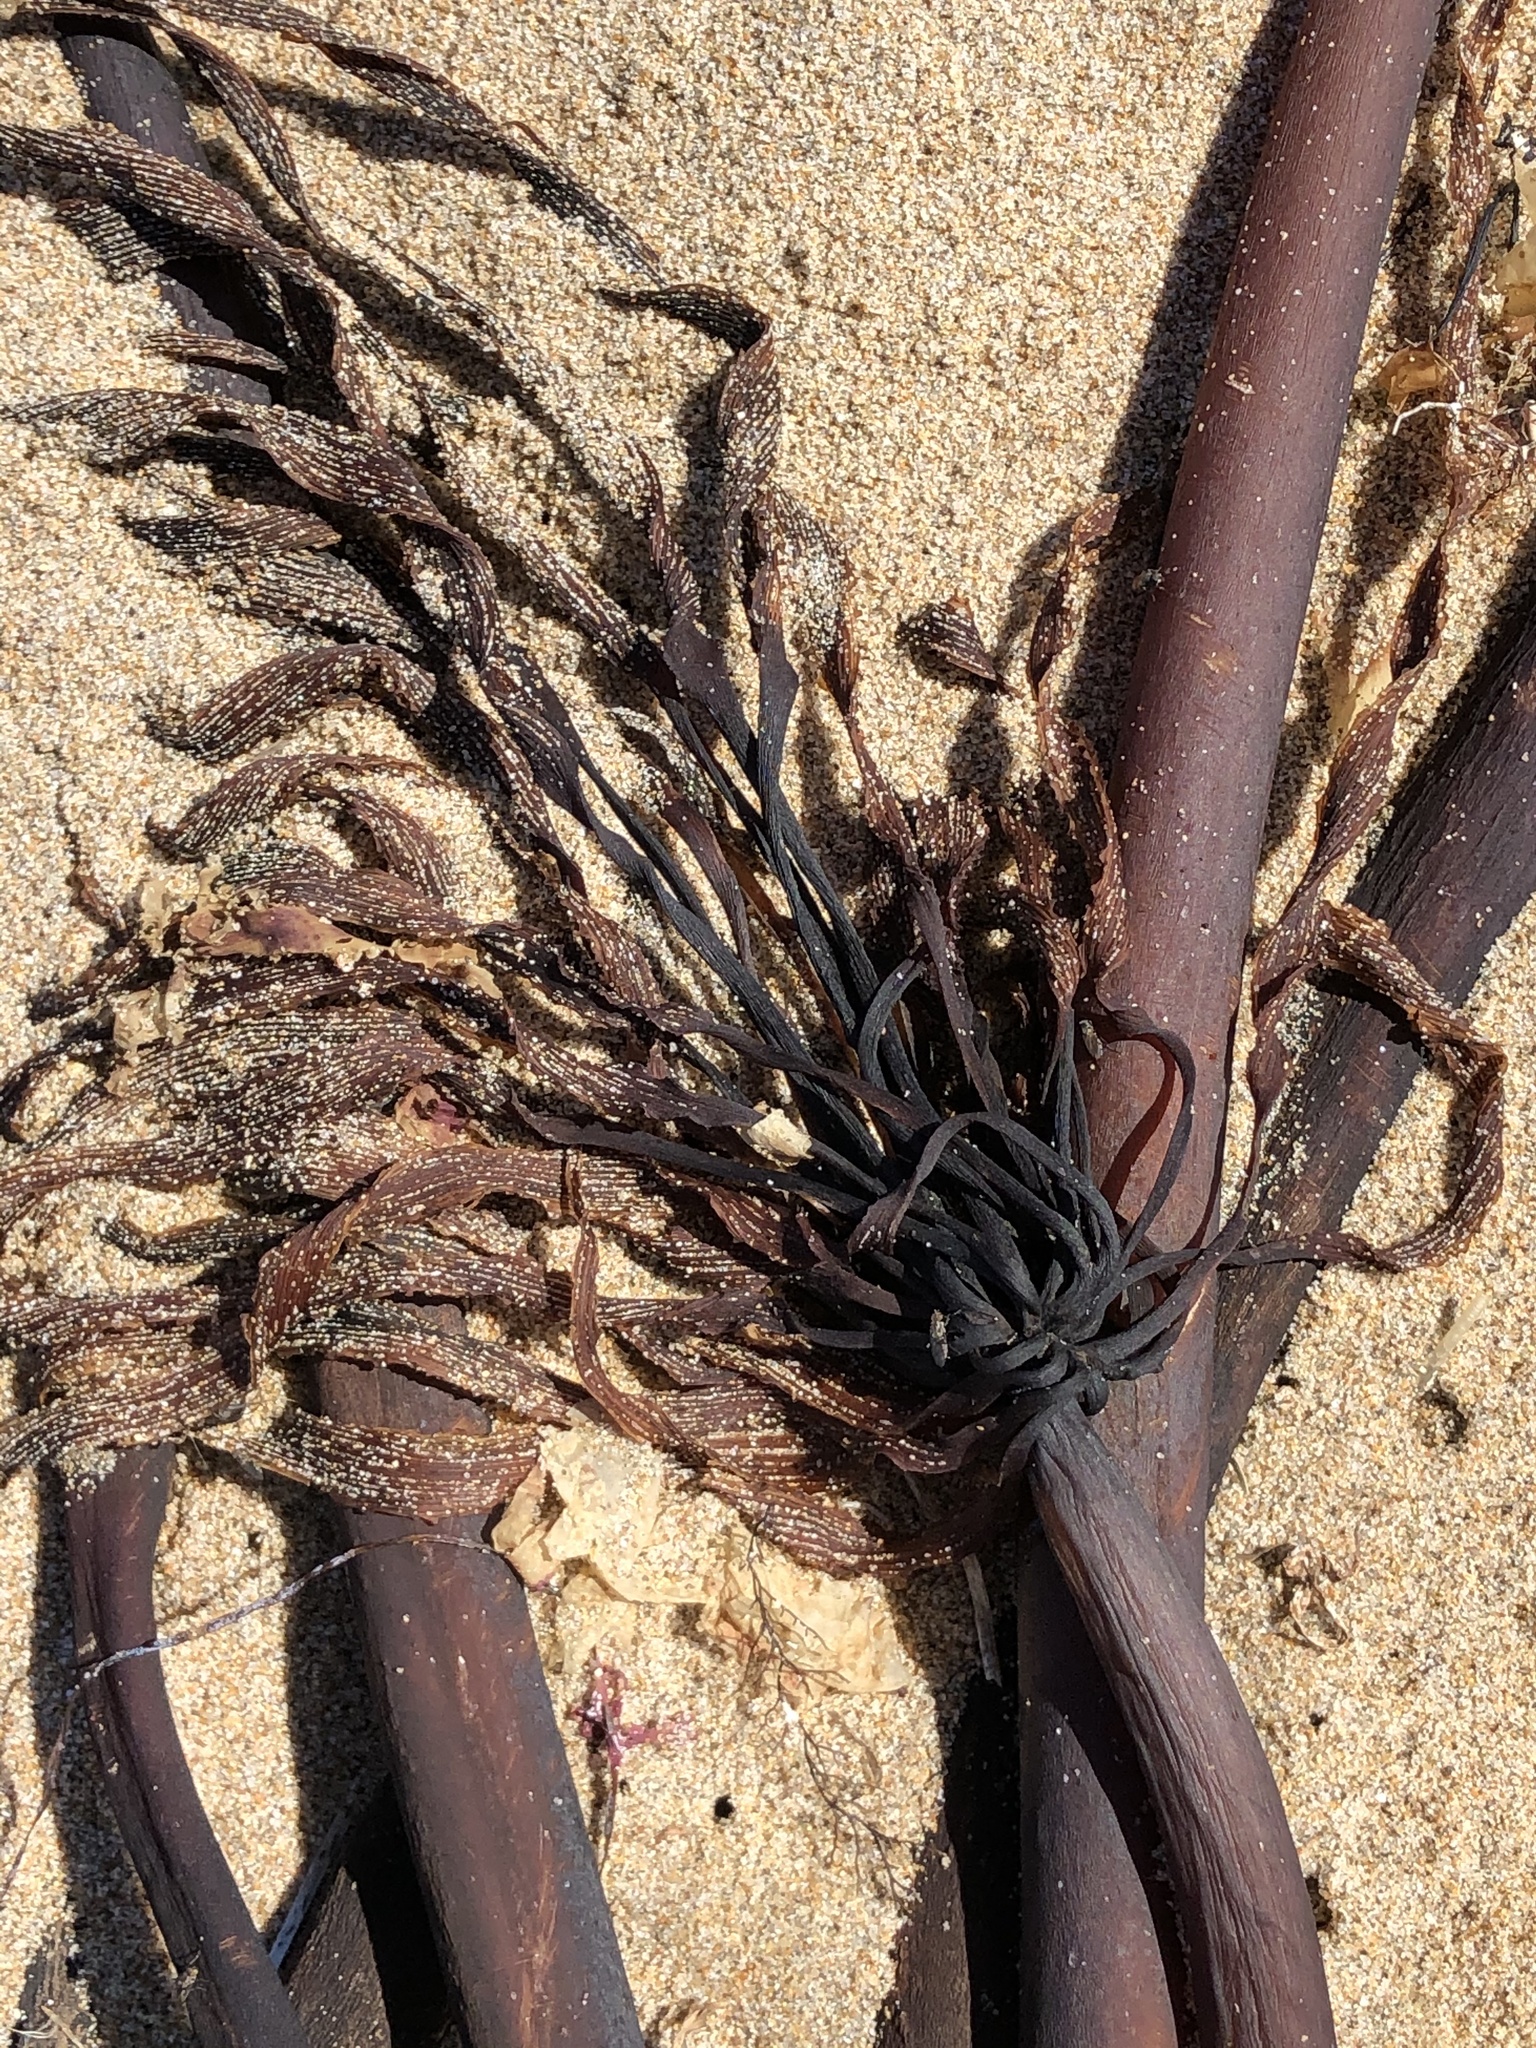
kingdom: Chromista
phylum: Ochrophyta
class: Phaeophyceae
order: Laminariales
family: Laminariaceae
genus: Postelsia
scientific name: Postelsia palmiformis
